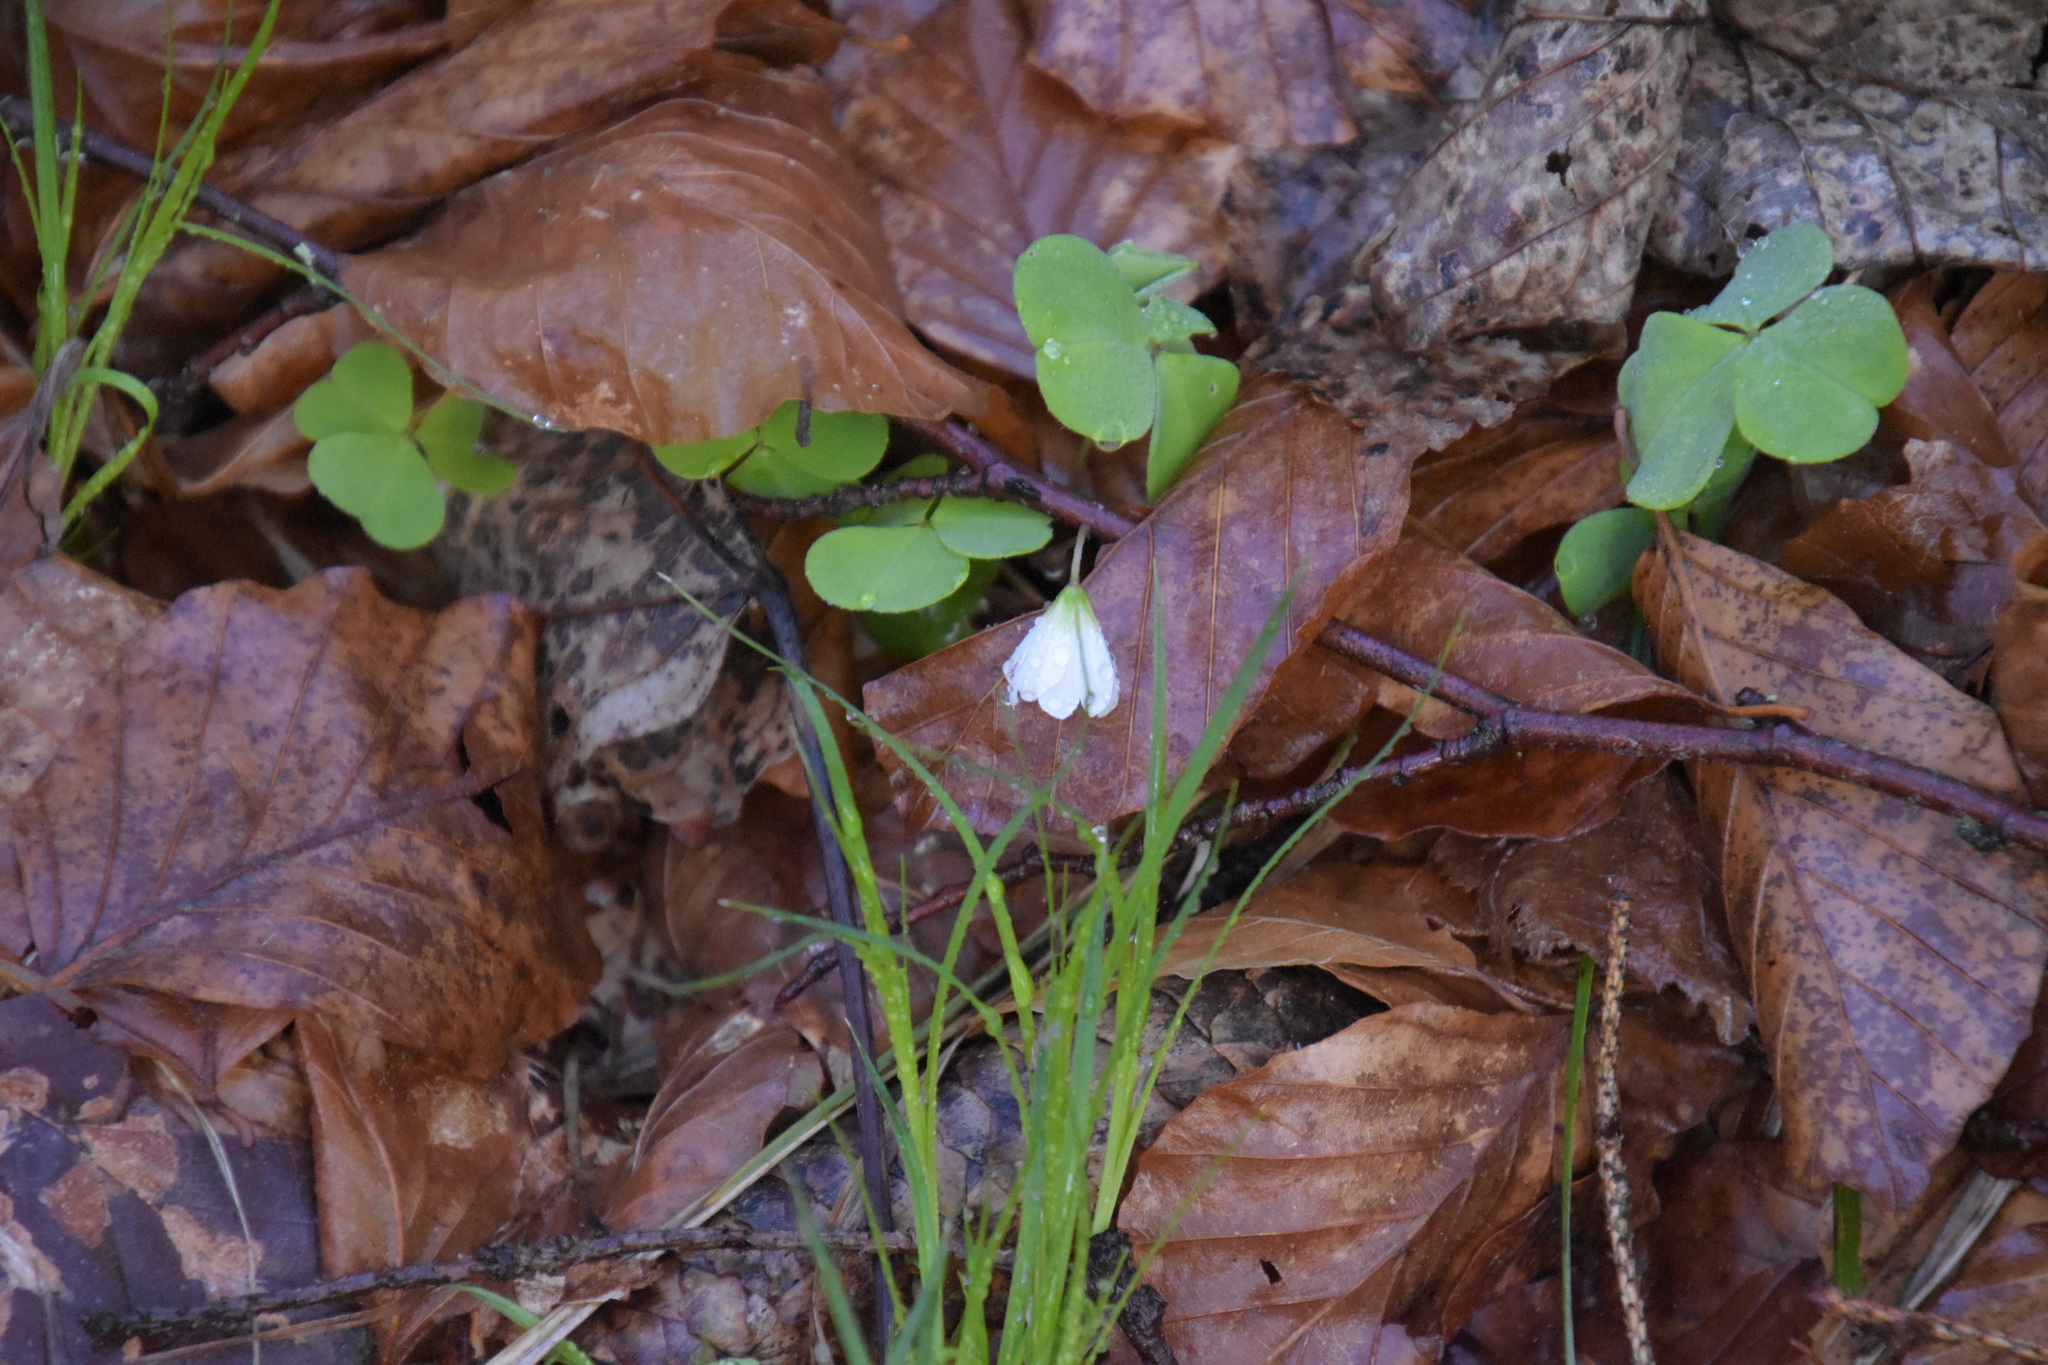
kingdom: Plantae
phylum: Tracheophyta
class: Magnoliopsida
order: Oxalidales
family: Oxalidaceae
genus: Oxalis
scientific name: Oxalis acetosella
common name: Wood-sorrel
